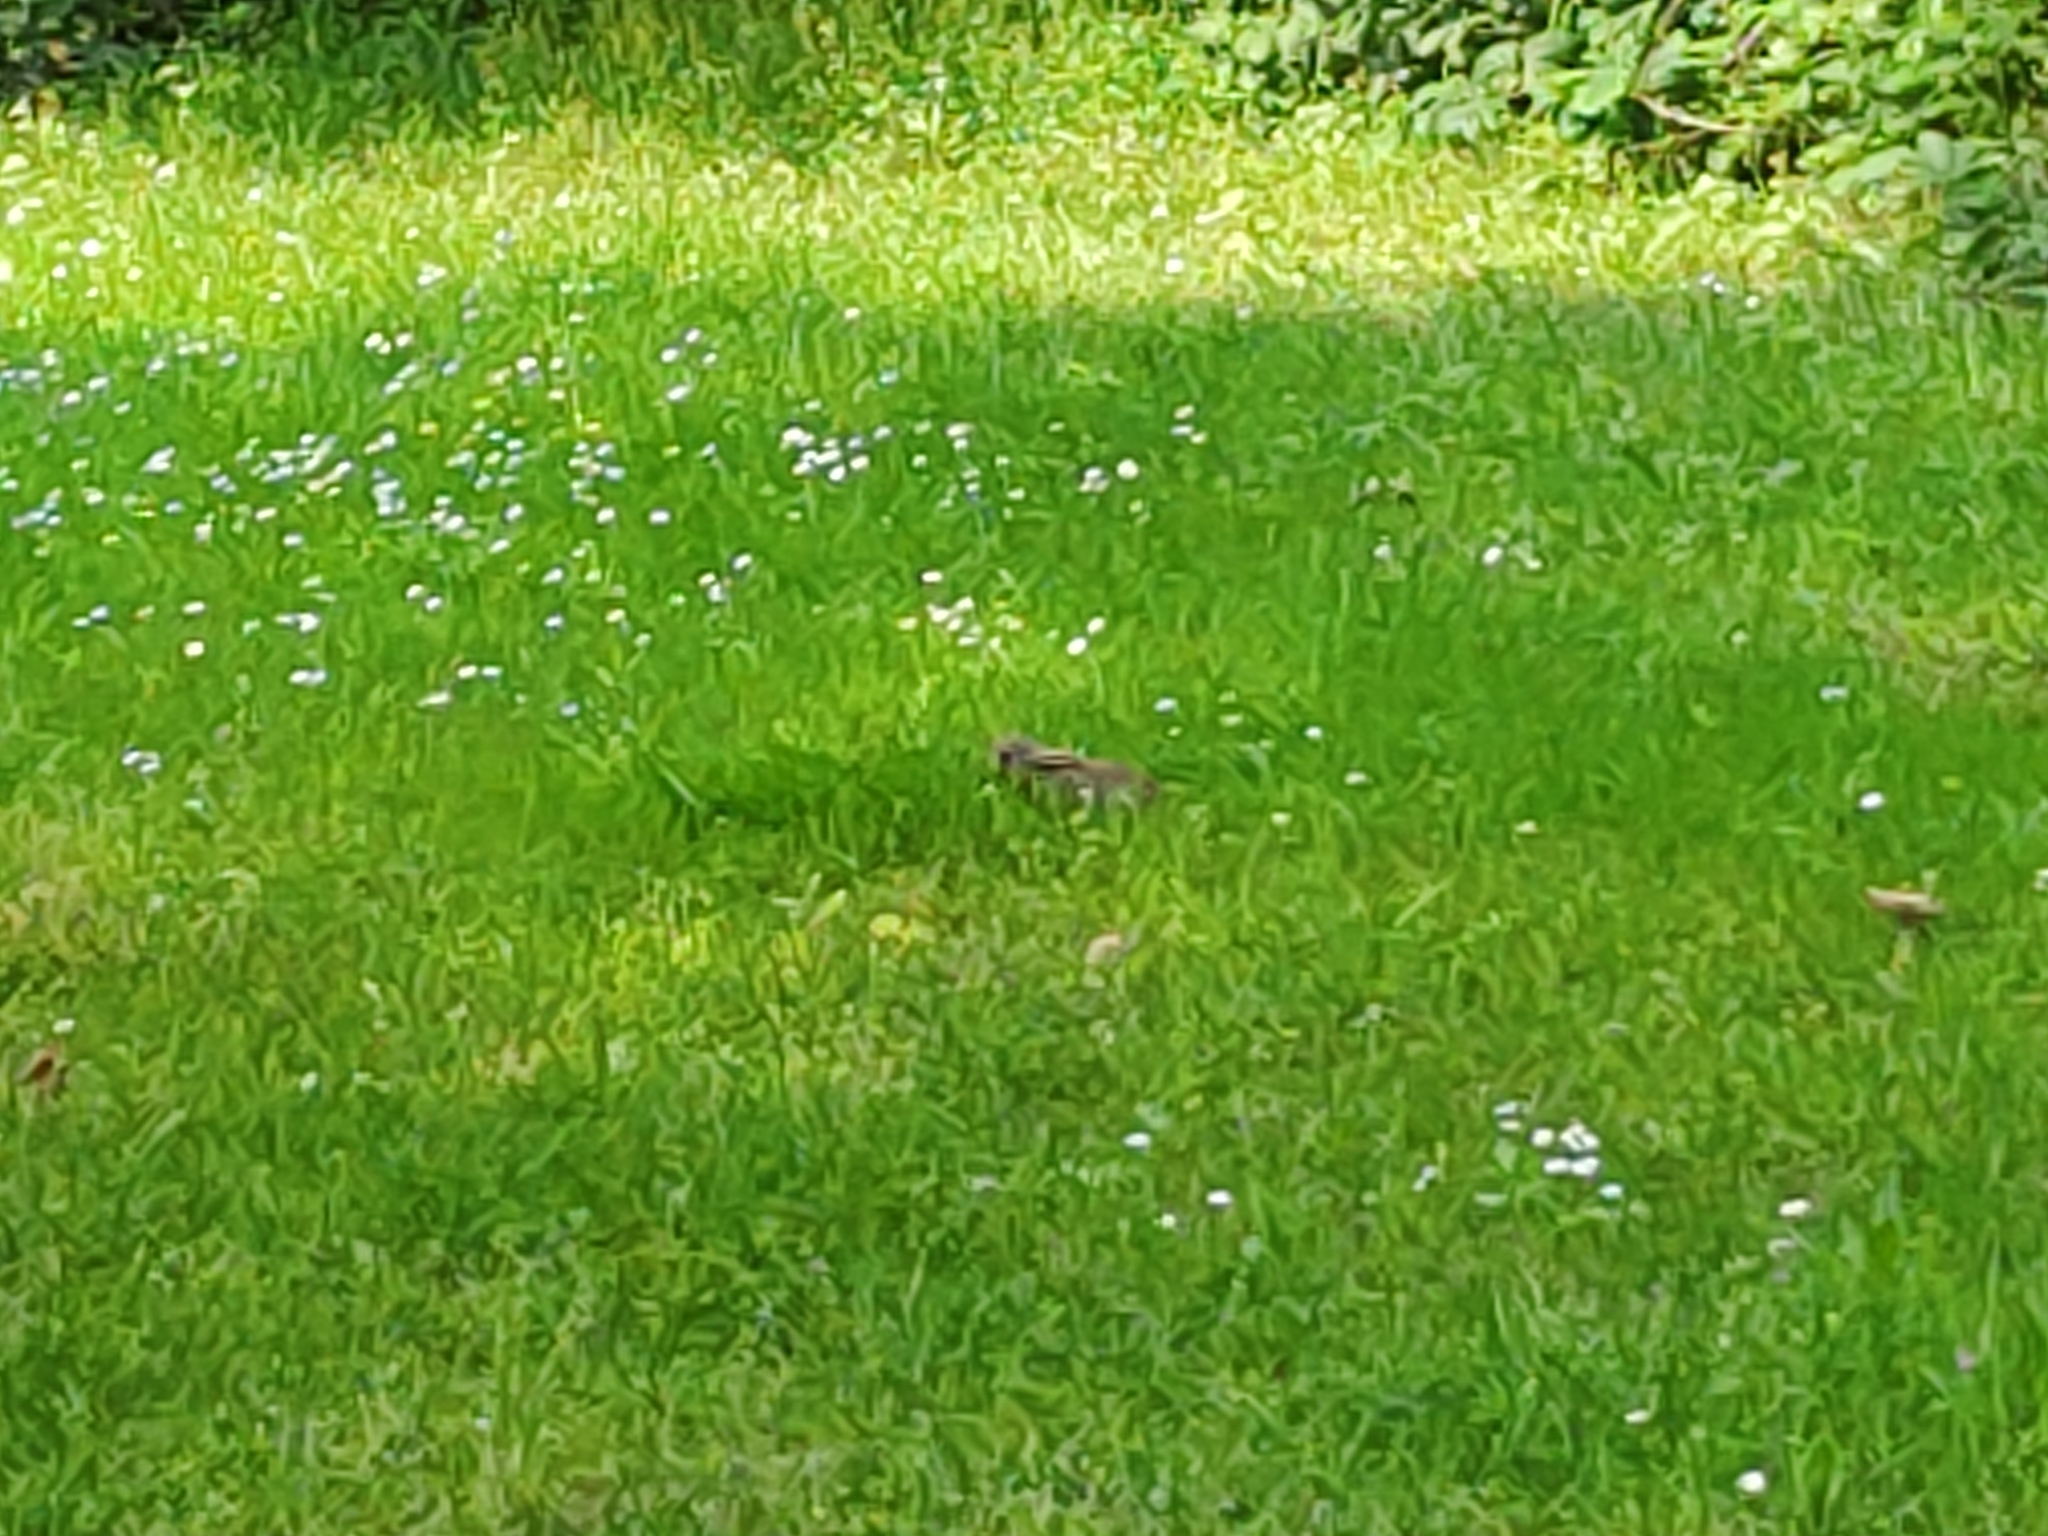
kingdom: Animalia
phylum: Chordata
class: Mammalia
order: Lagomorpha
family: Leporidae
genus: Oryctolagus
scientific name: Oryctolagus cuniculus
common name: European rabbit
